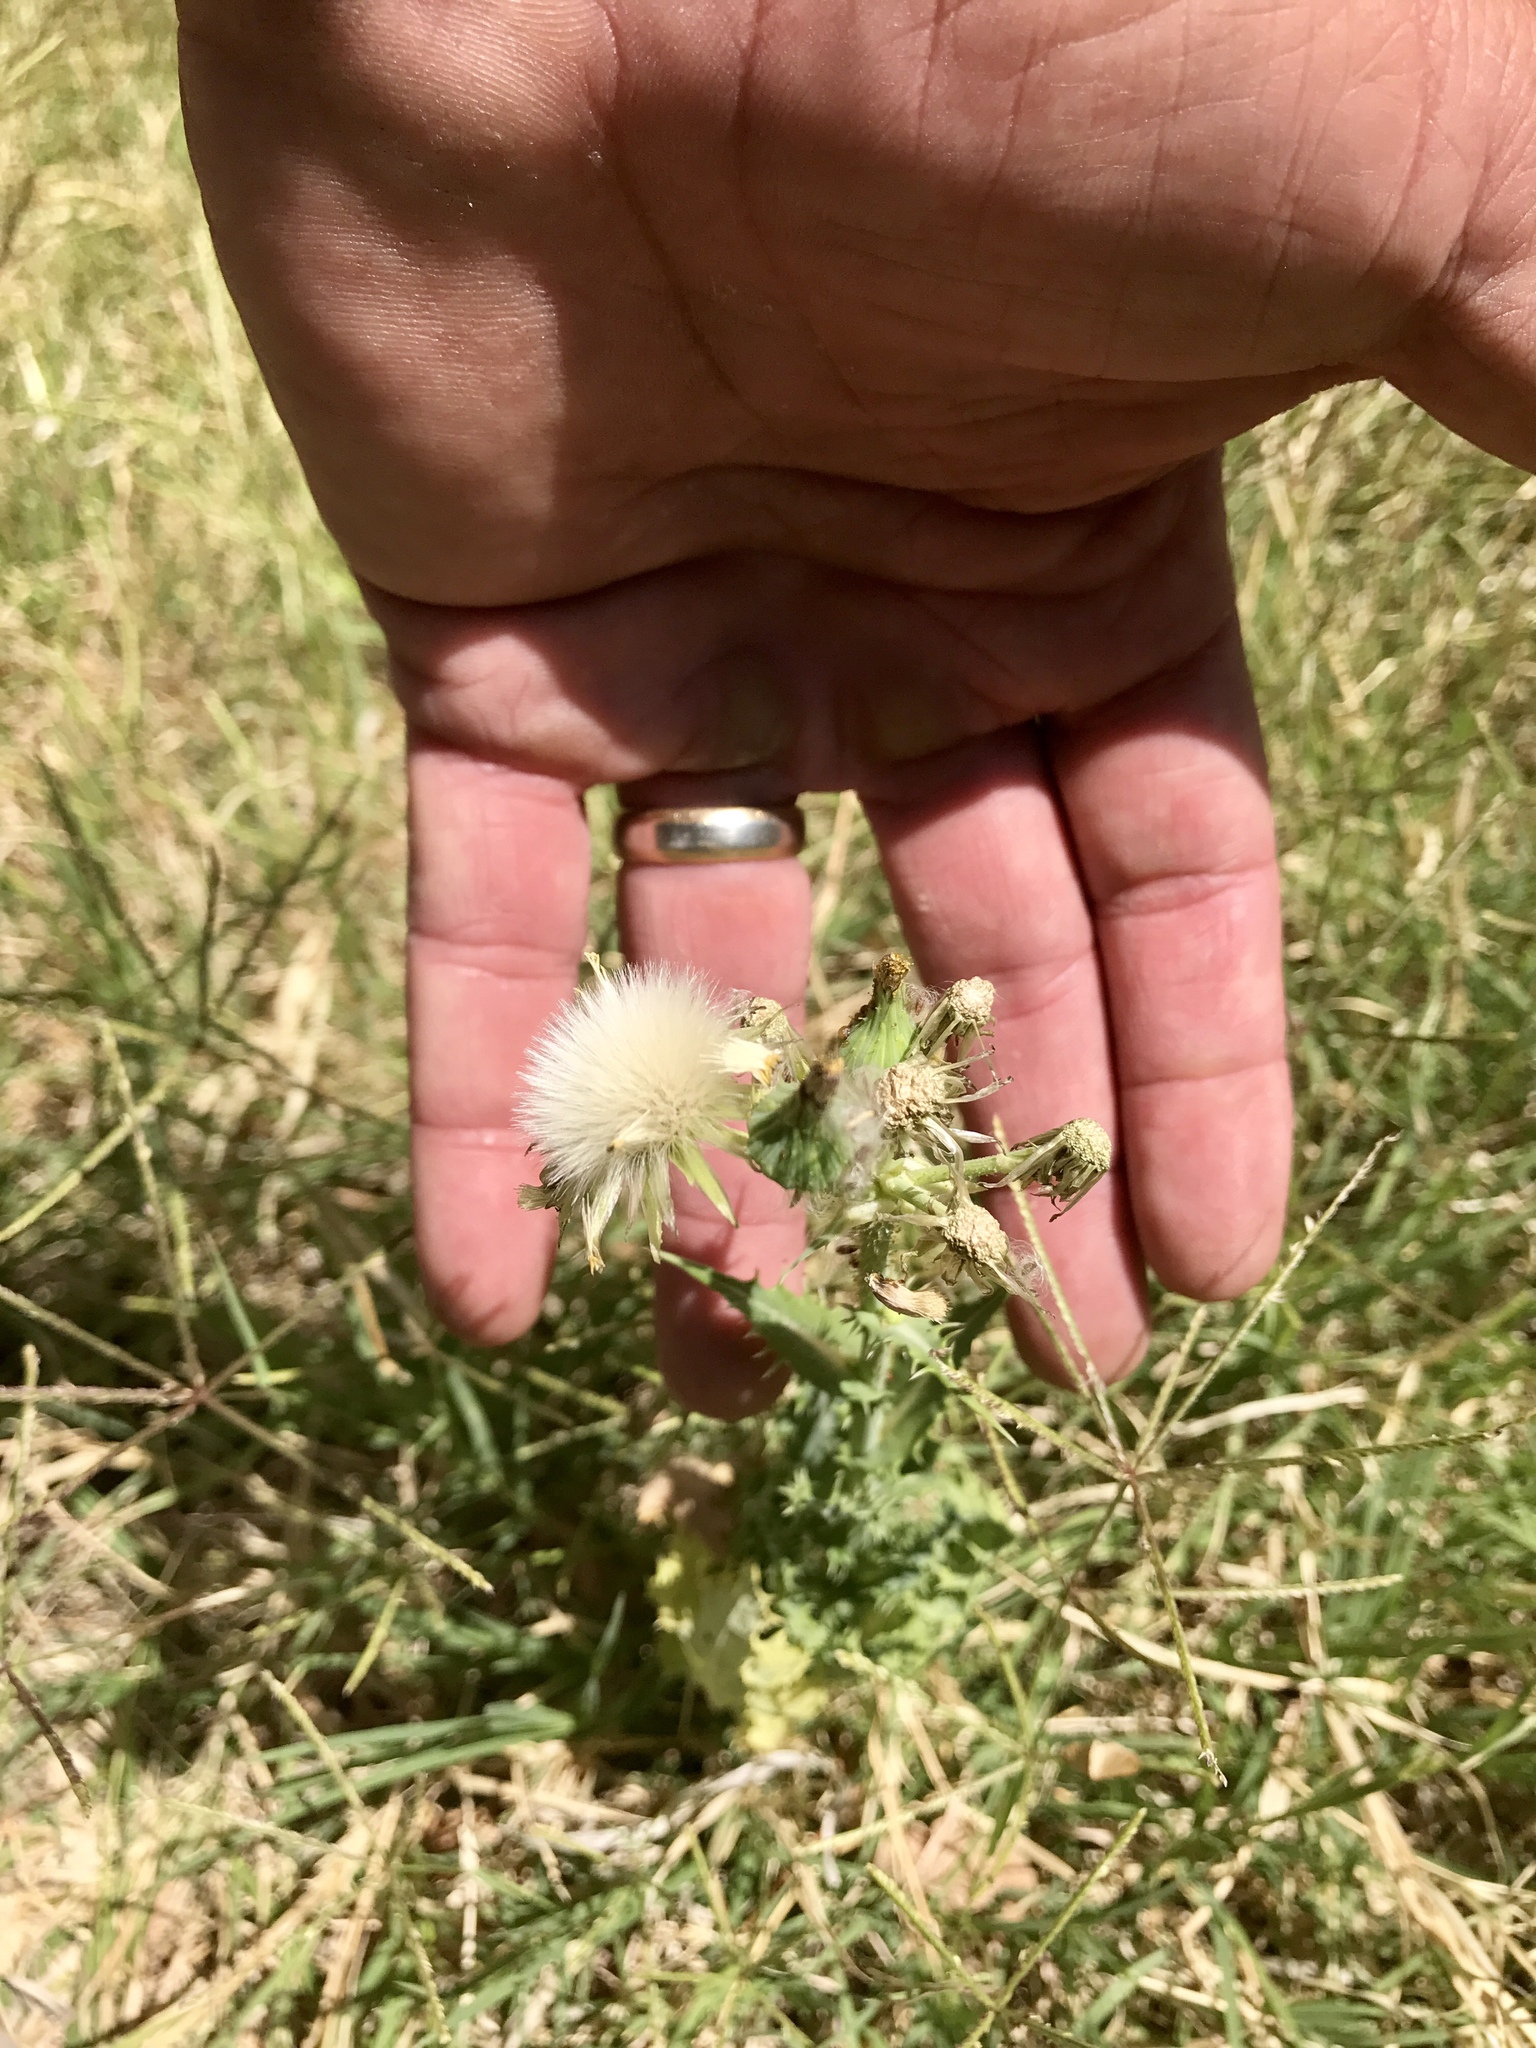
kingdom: Plantae
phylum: Tracheophyta
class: Magnoliopsida
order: Asterales
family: Asteraceae
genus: Sonchus
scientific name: Sonchus asper
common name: Prickly sow-thistle
